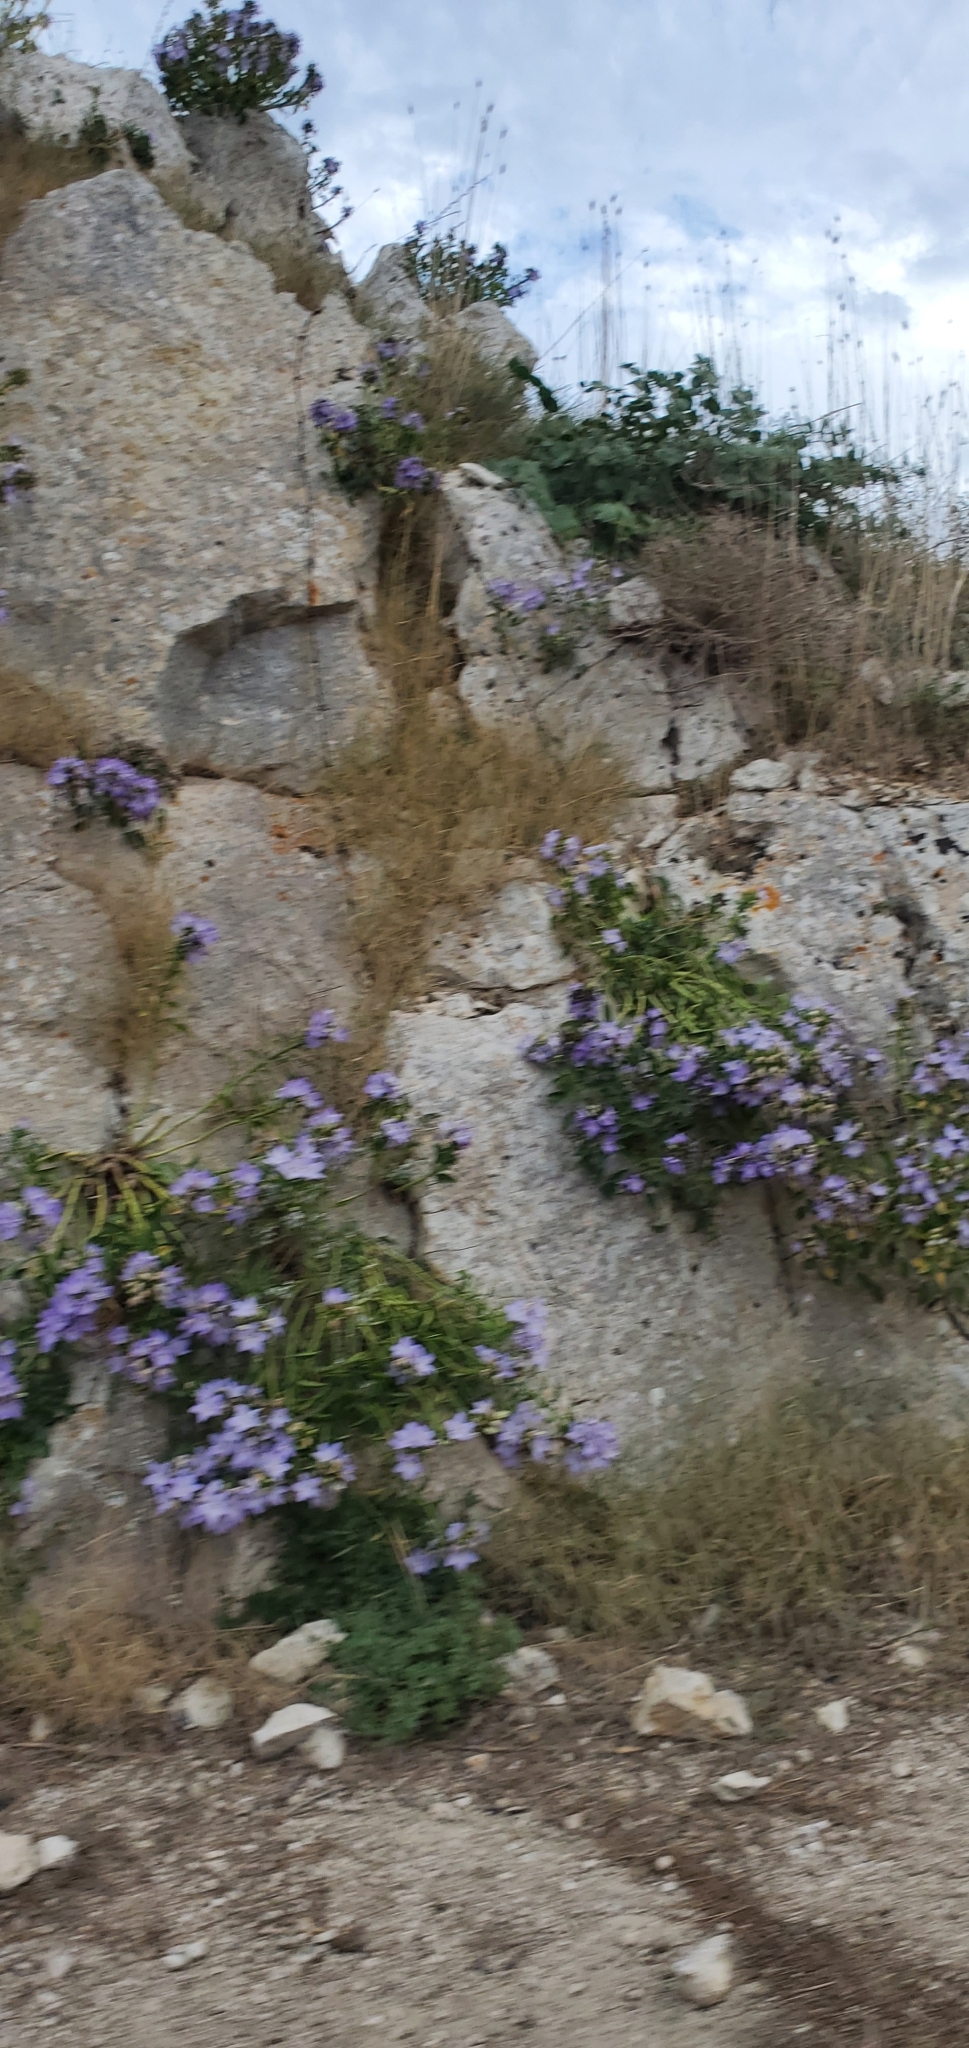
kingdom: Plantae
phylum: Tracheophyta
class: Magnoliopsida
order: Asterales
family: Campanulaceae
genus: Campanula
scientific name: Campanula versicolor
